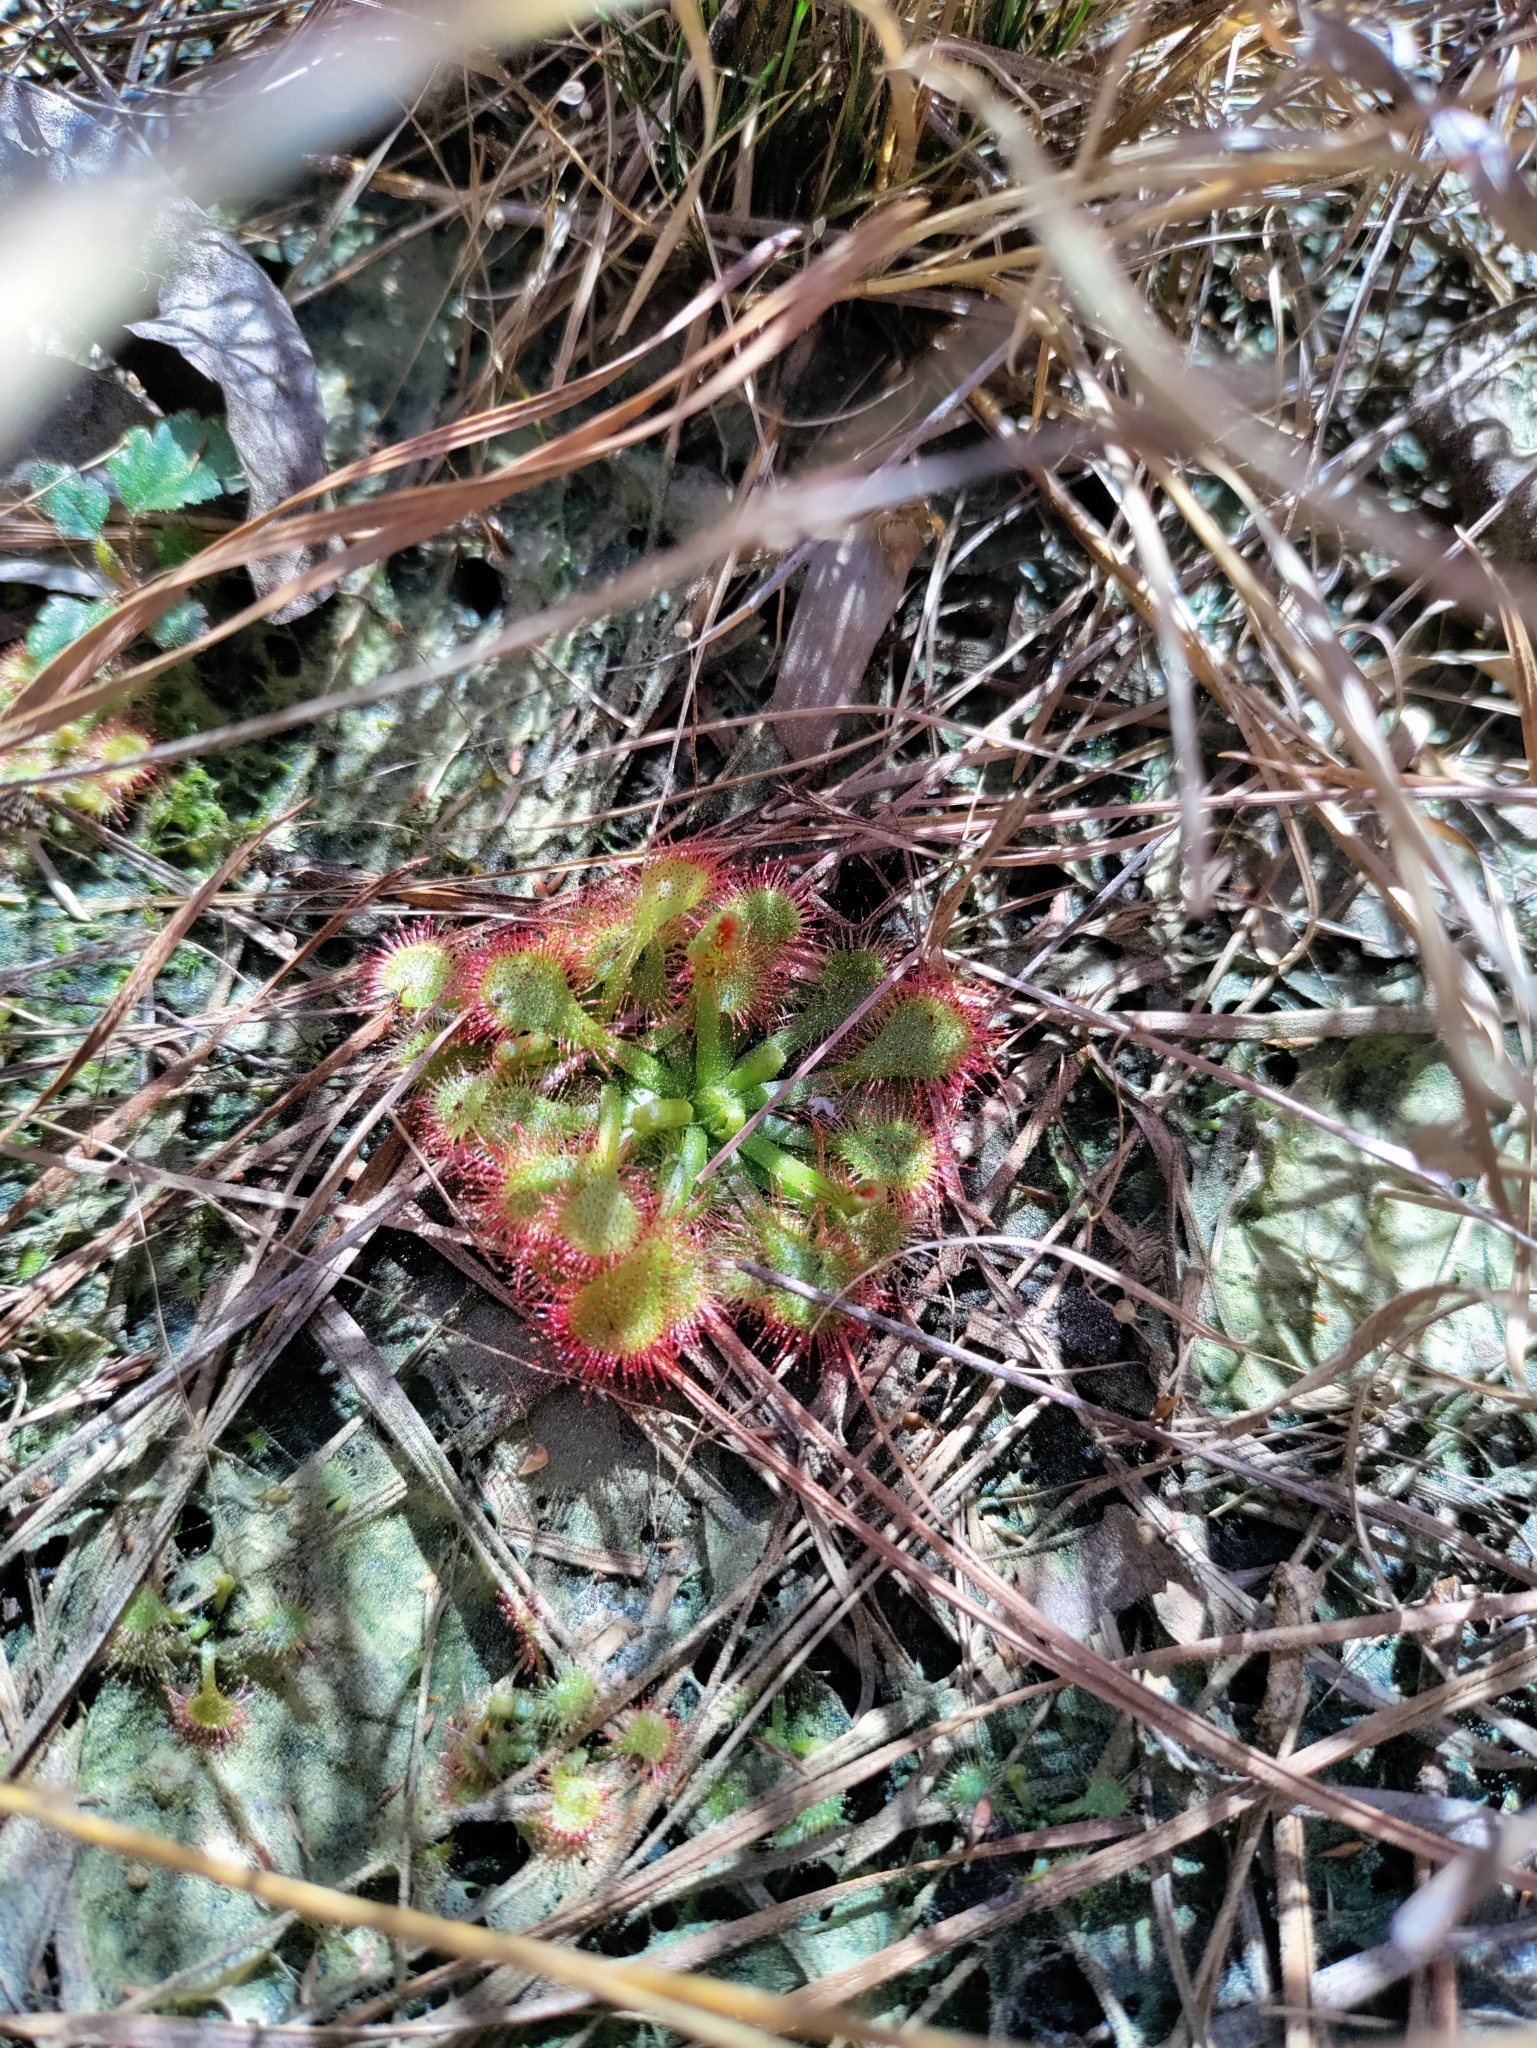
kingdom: Plantae
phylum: Tracheophyta
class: Magnoliopsida
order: Caryophyllales
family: Droseraceae
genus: Drosera
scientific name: Drosera capillaris
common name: Pink sundew
